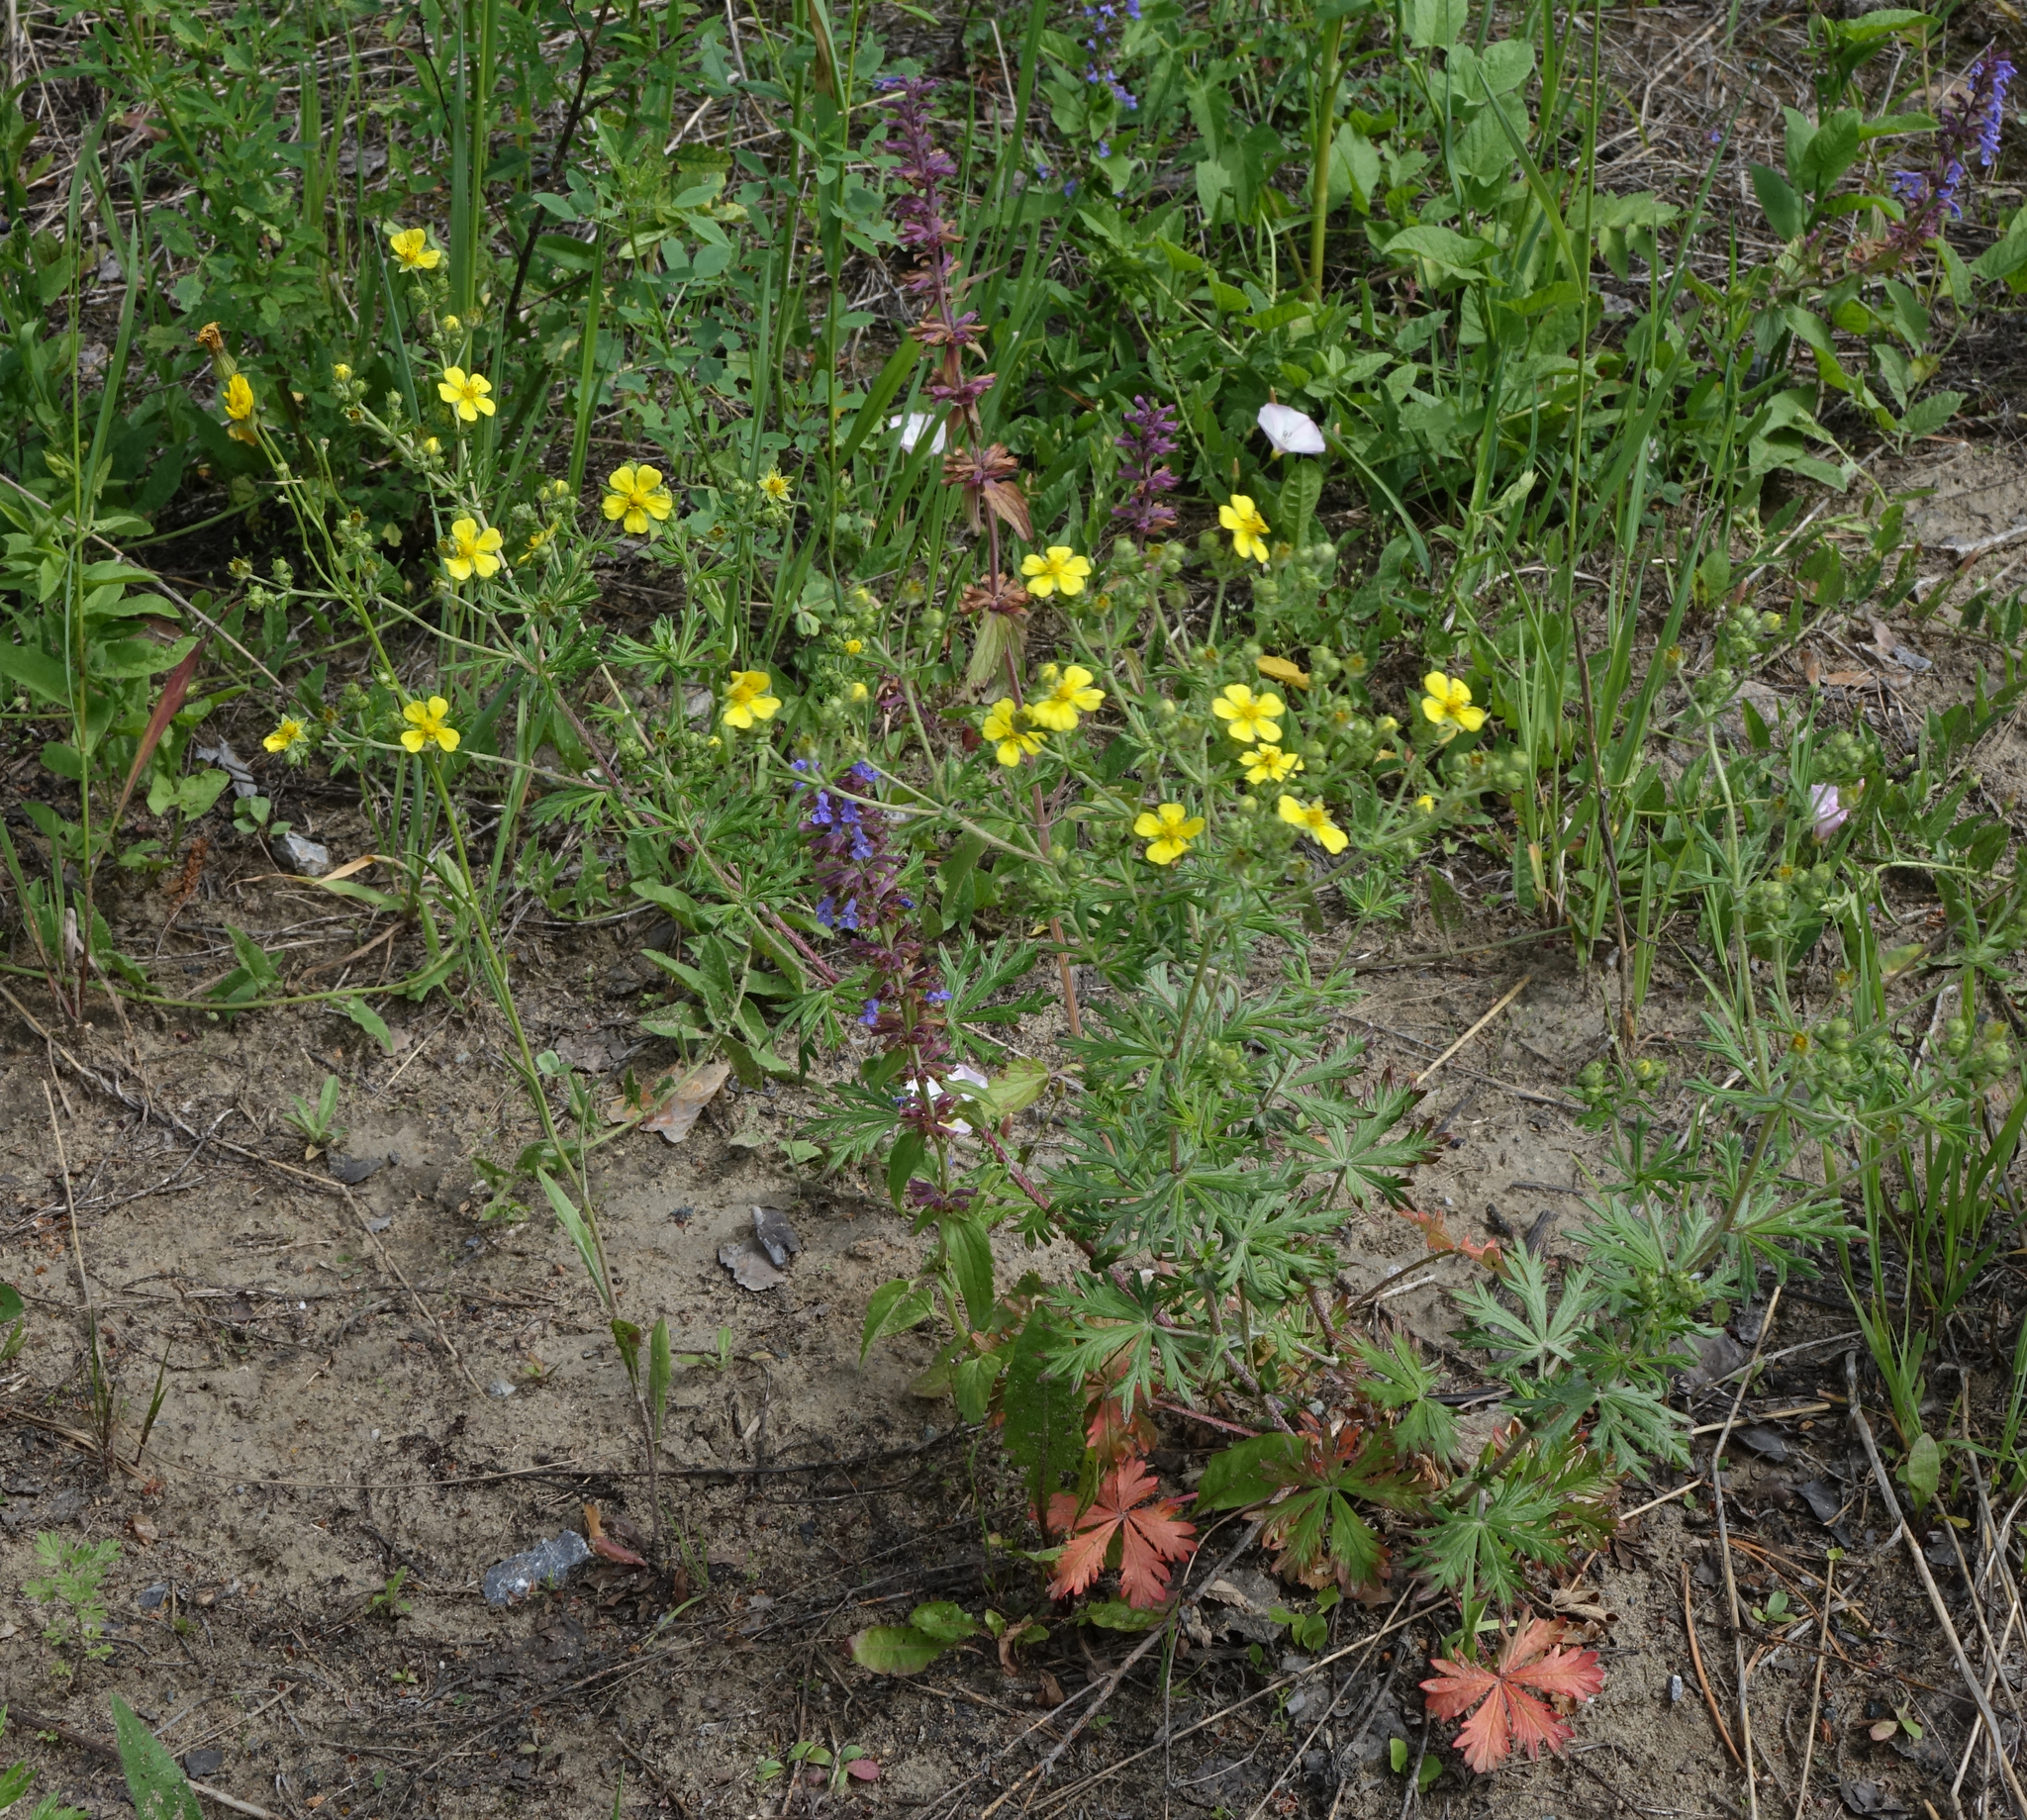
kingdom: Plantae
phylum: Tracheophyta
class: Magnoliopsida
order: Rosales
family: Rosaceae
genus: Potentilla
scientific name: Potentilla argentea
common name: Hoary cinquefoil
